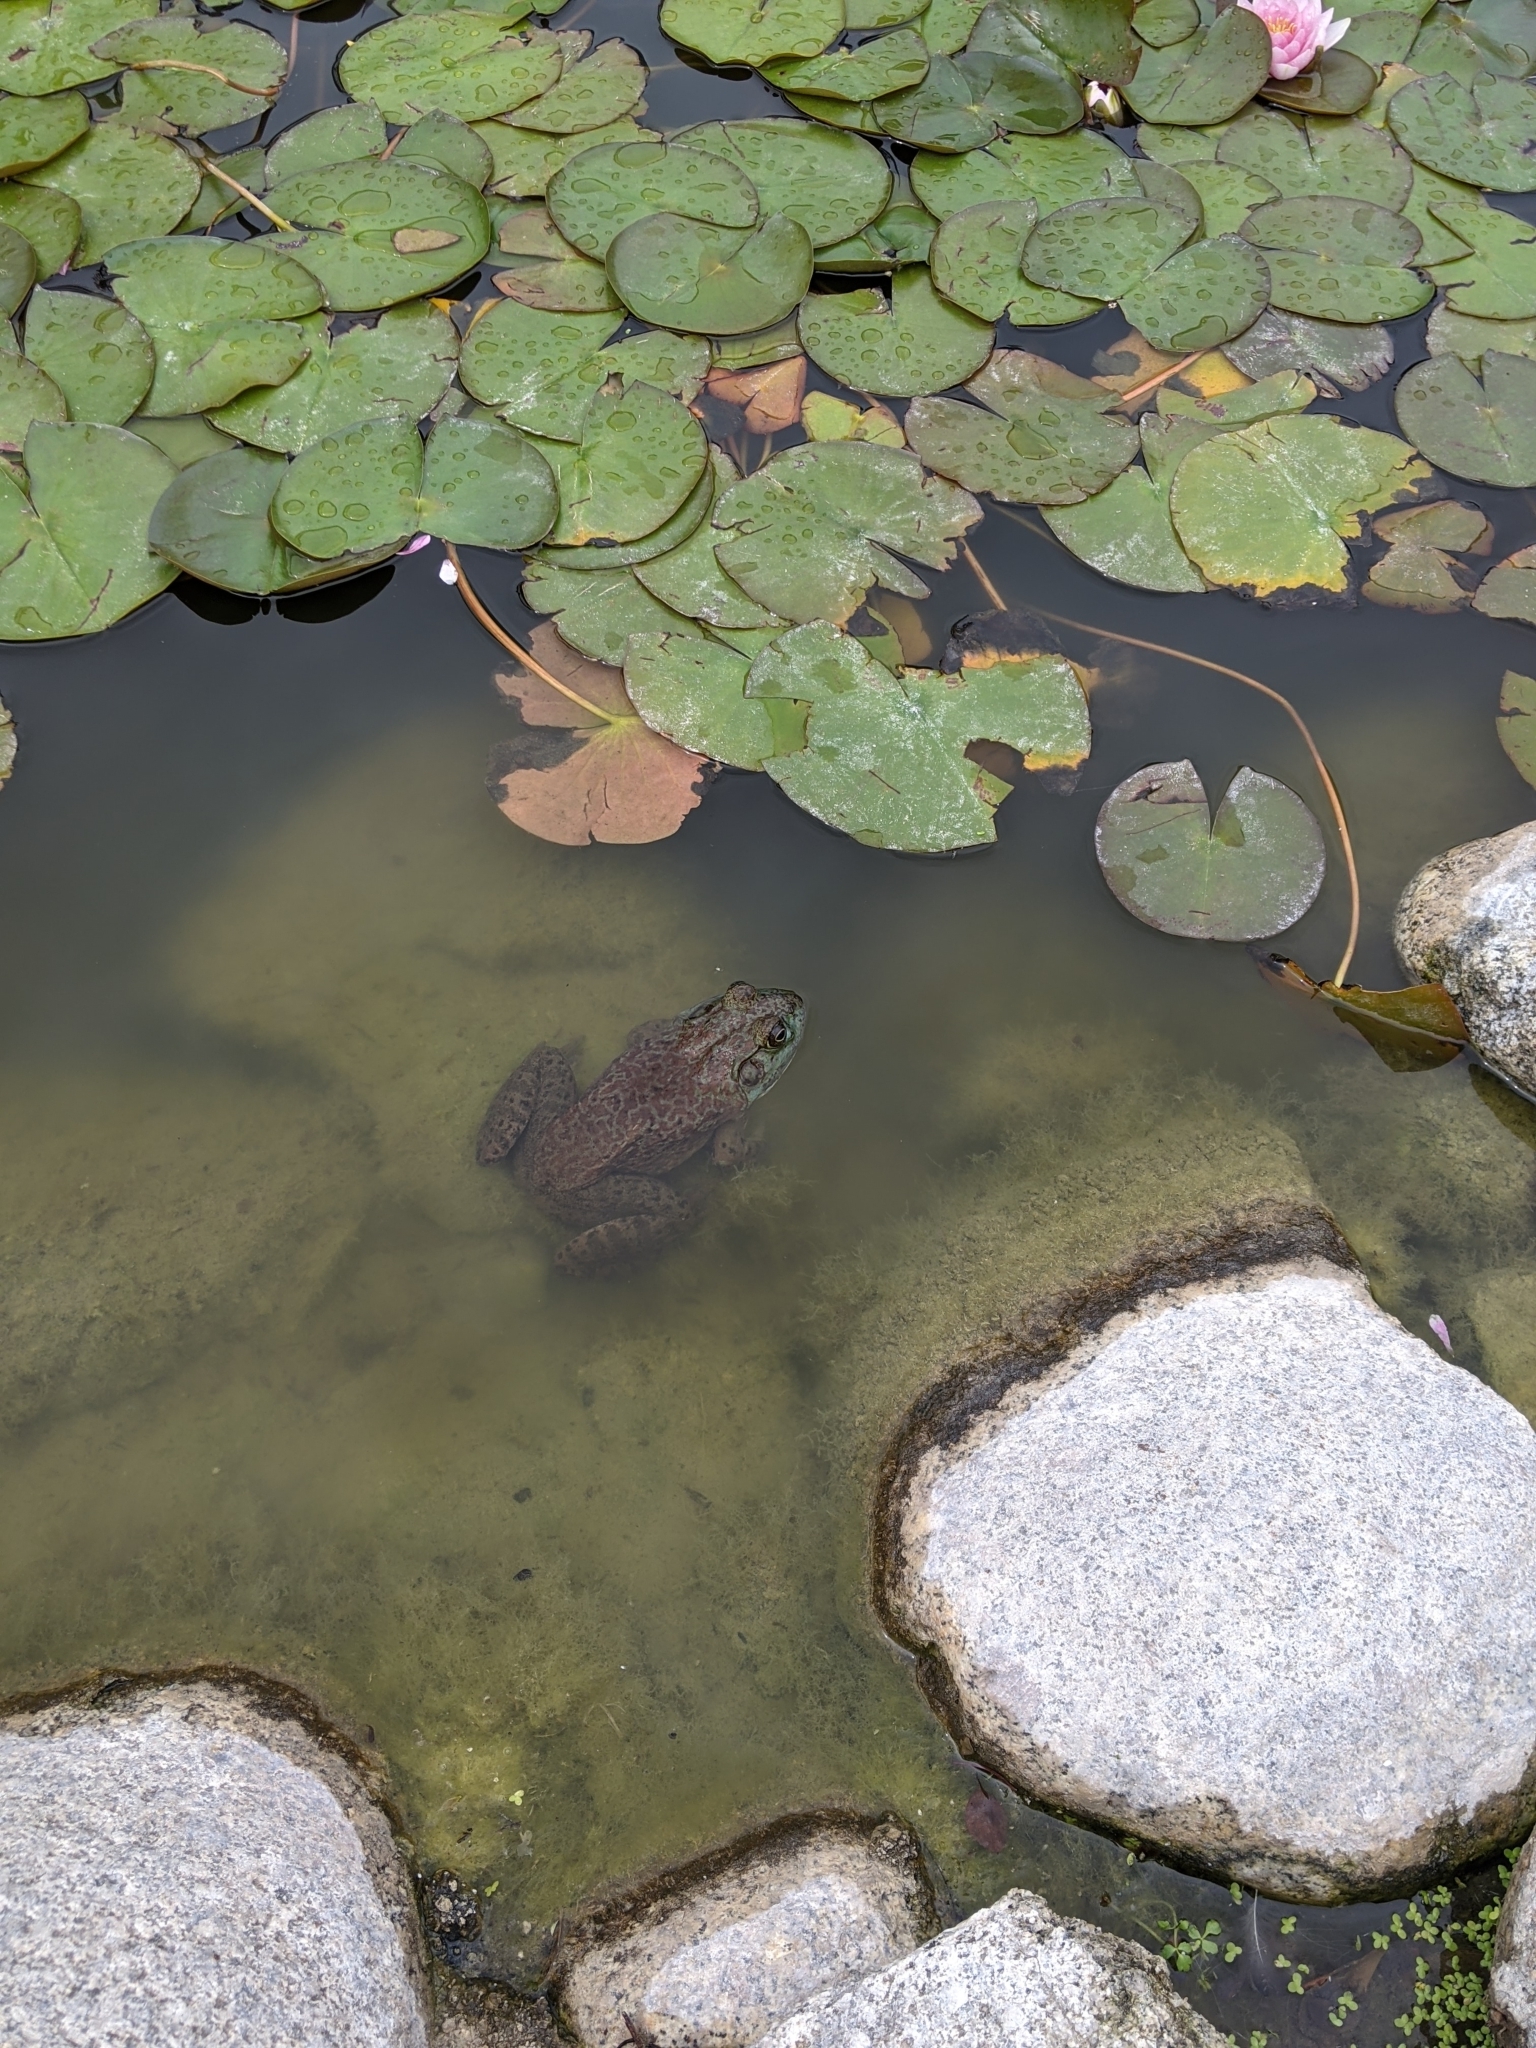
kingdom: Animalia
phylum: Chordata
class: Amphibia
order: Anura
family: Ranidae
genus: Lithobates
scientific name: Lithobates catesbeianus
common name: American bullfrog
